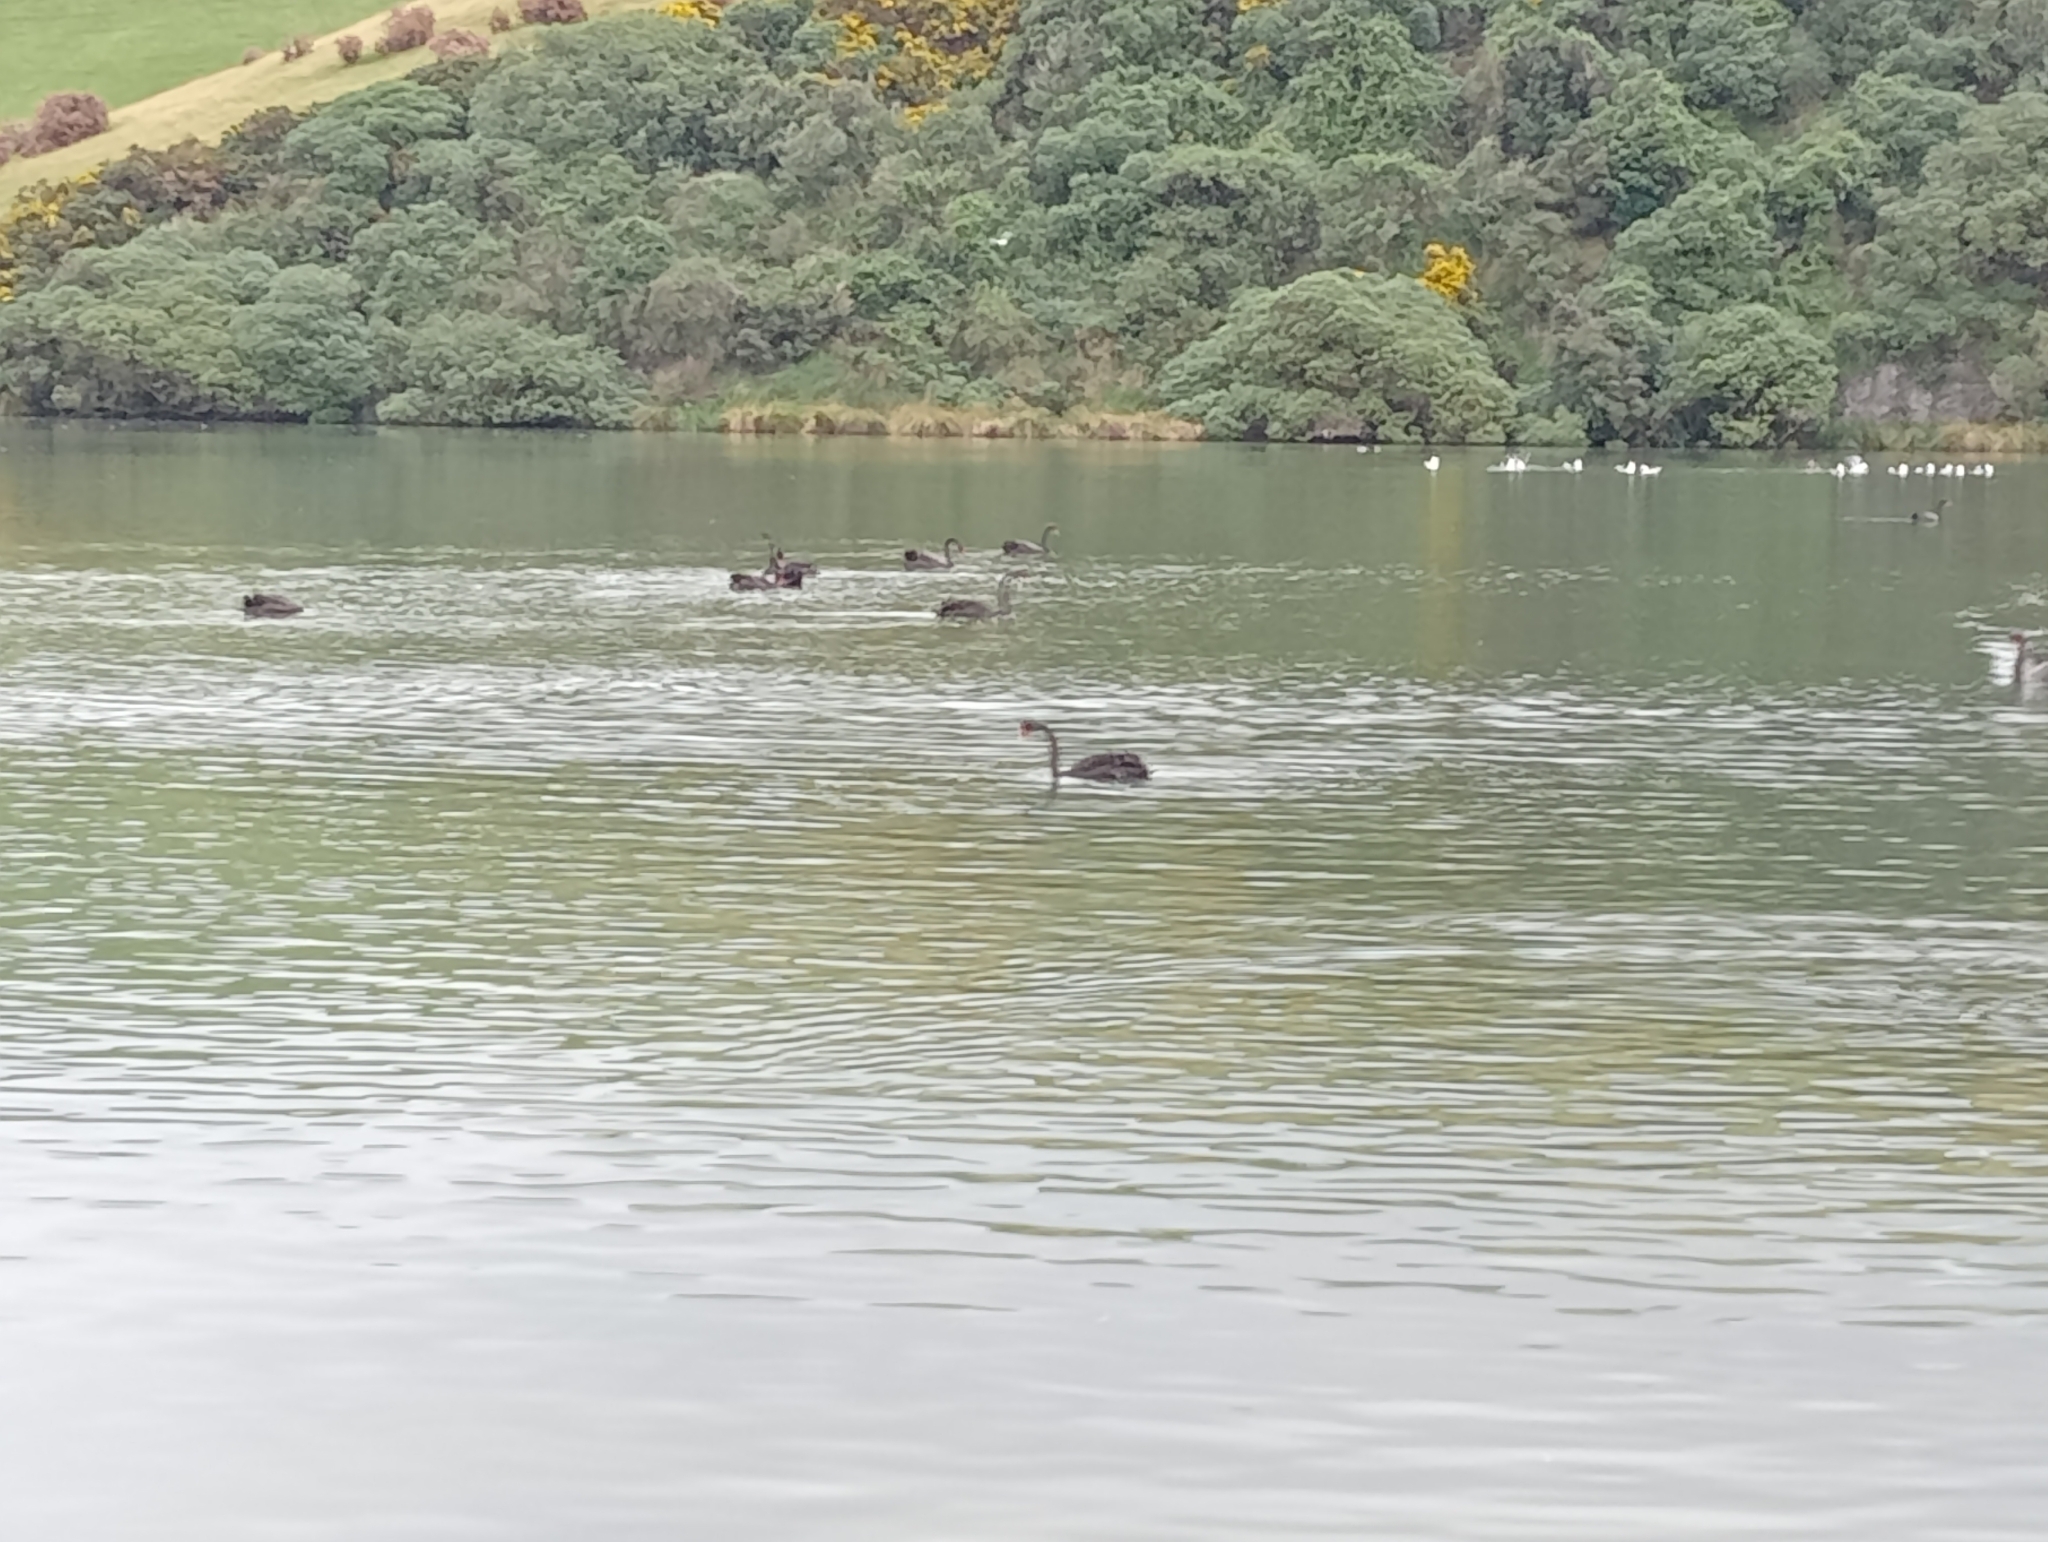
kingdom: Animalia
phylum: Chordata
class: Aves
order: Anseriformes
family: Anatidae
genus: Cygnus
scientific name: Cygnus atratus
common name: Black swan
